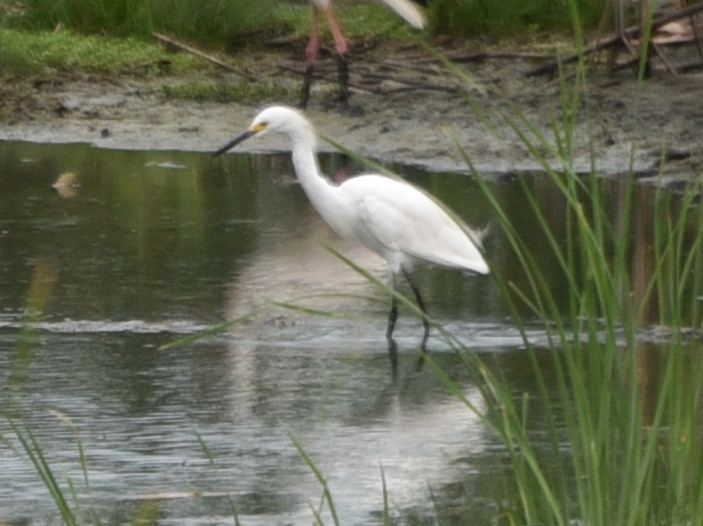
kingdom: Animalia
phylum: Chordata
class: Aves
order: Pelecaniformes
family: Ardeidae
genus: Egretta
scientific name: Egretta thula
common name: Snowy egret
